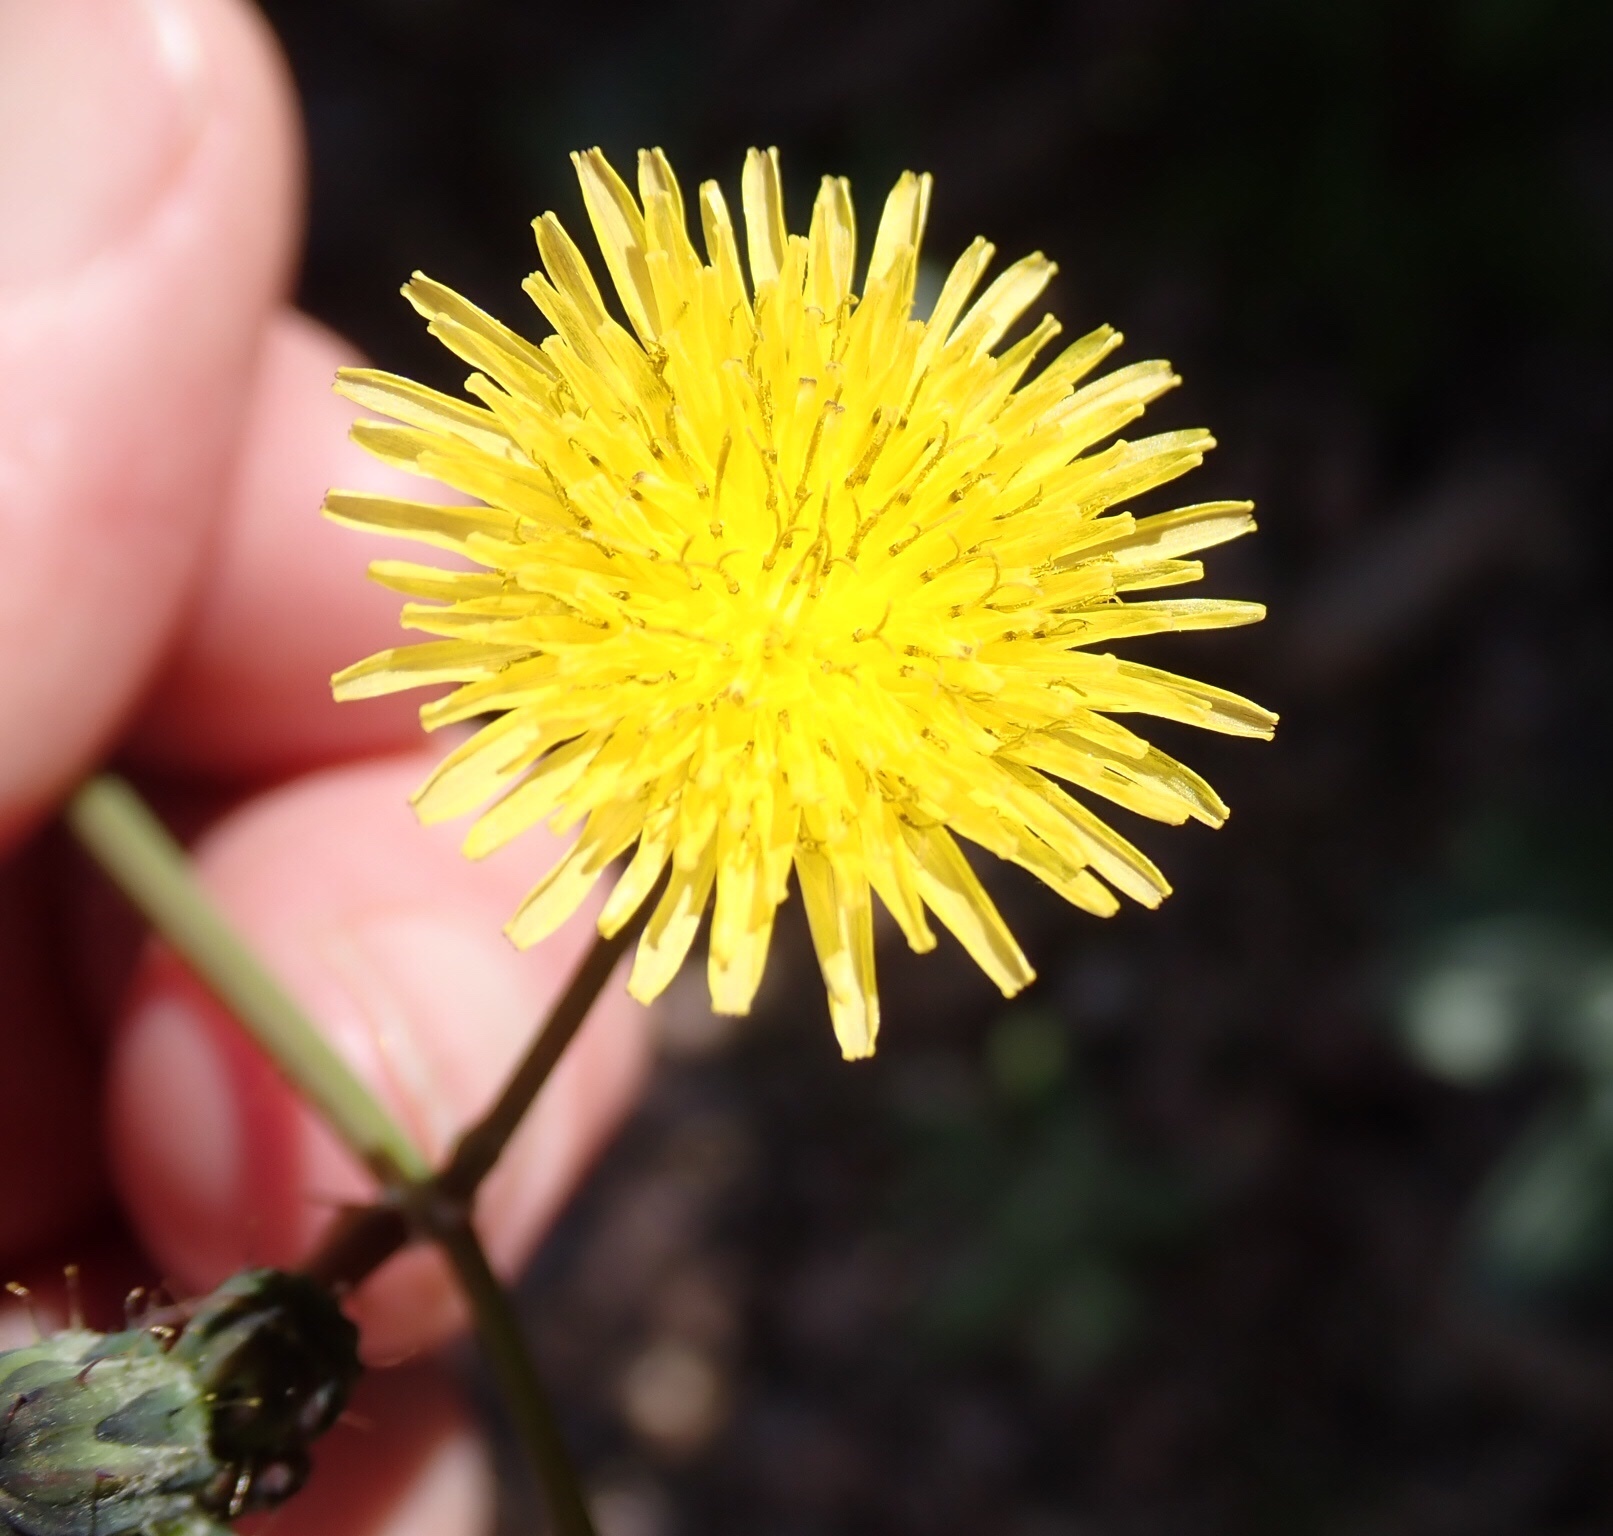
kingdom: Plantae
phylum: Tracheophyta
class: Magnoliopsida
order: Asterales
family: Asteraceae
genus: Sonchus
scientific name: Sonchus oleraceus
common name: Common sowthistle
